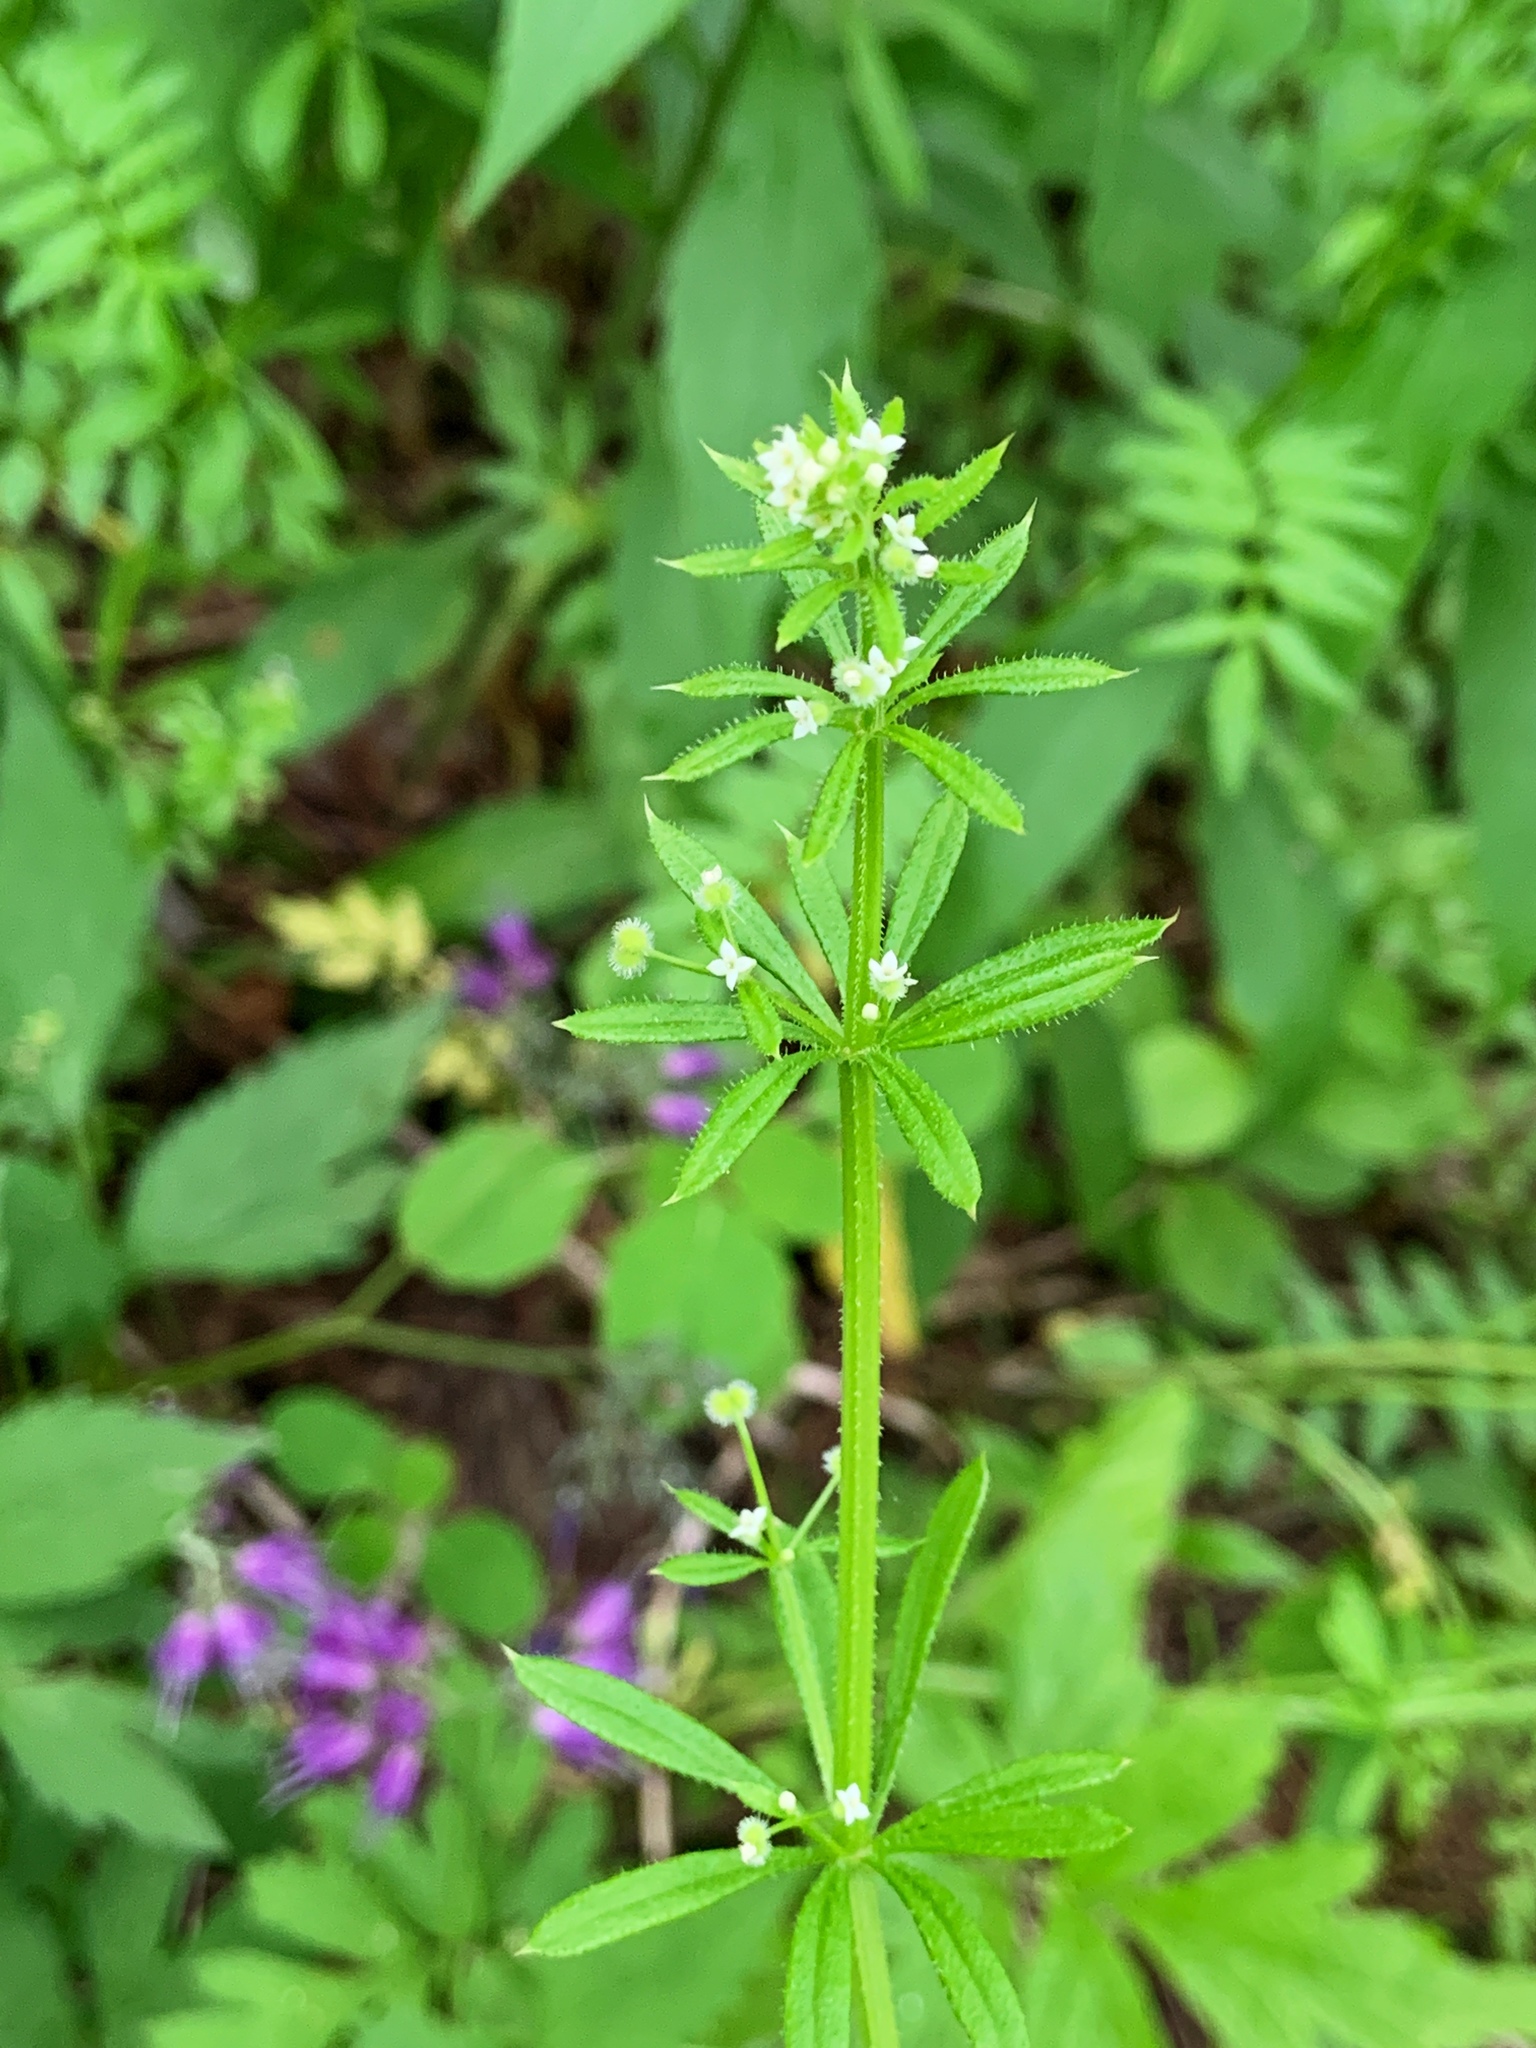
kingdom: Plantae
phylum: Tracheophyta
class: Magnoliopsida
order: Gentianales
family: Rubiaceae
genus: Galium
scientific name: Galium aparine
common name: Cleavers
